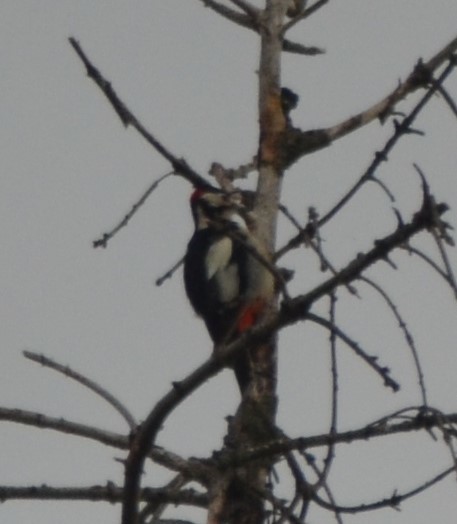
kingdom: Animalia
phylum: Chordata
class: Aves
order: Piciformes
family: Picidae
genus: Dendrocopos
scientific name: Dendrocopos major
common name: Great spotted woodpecker
